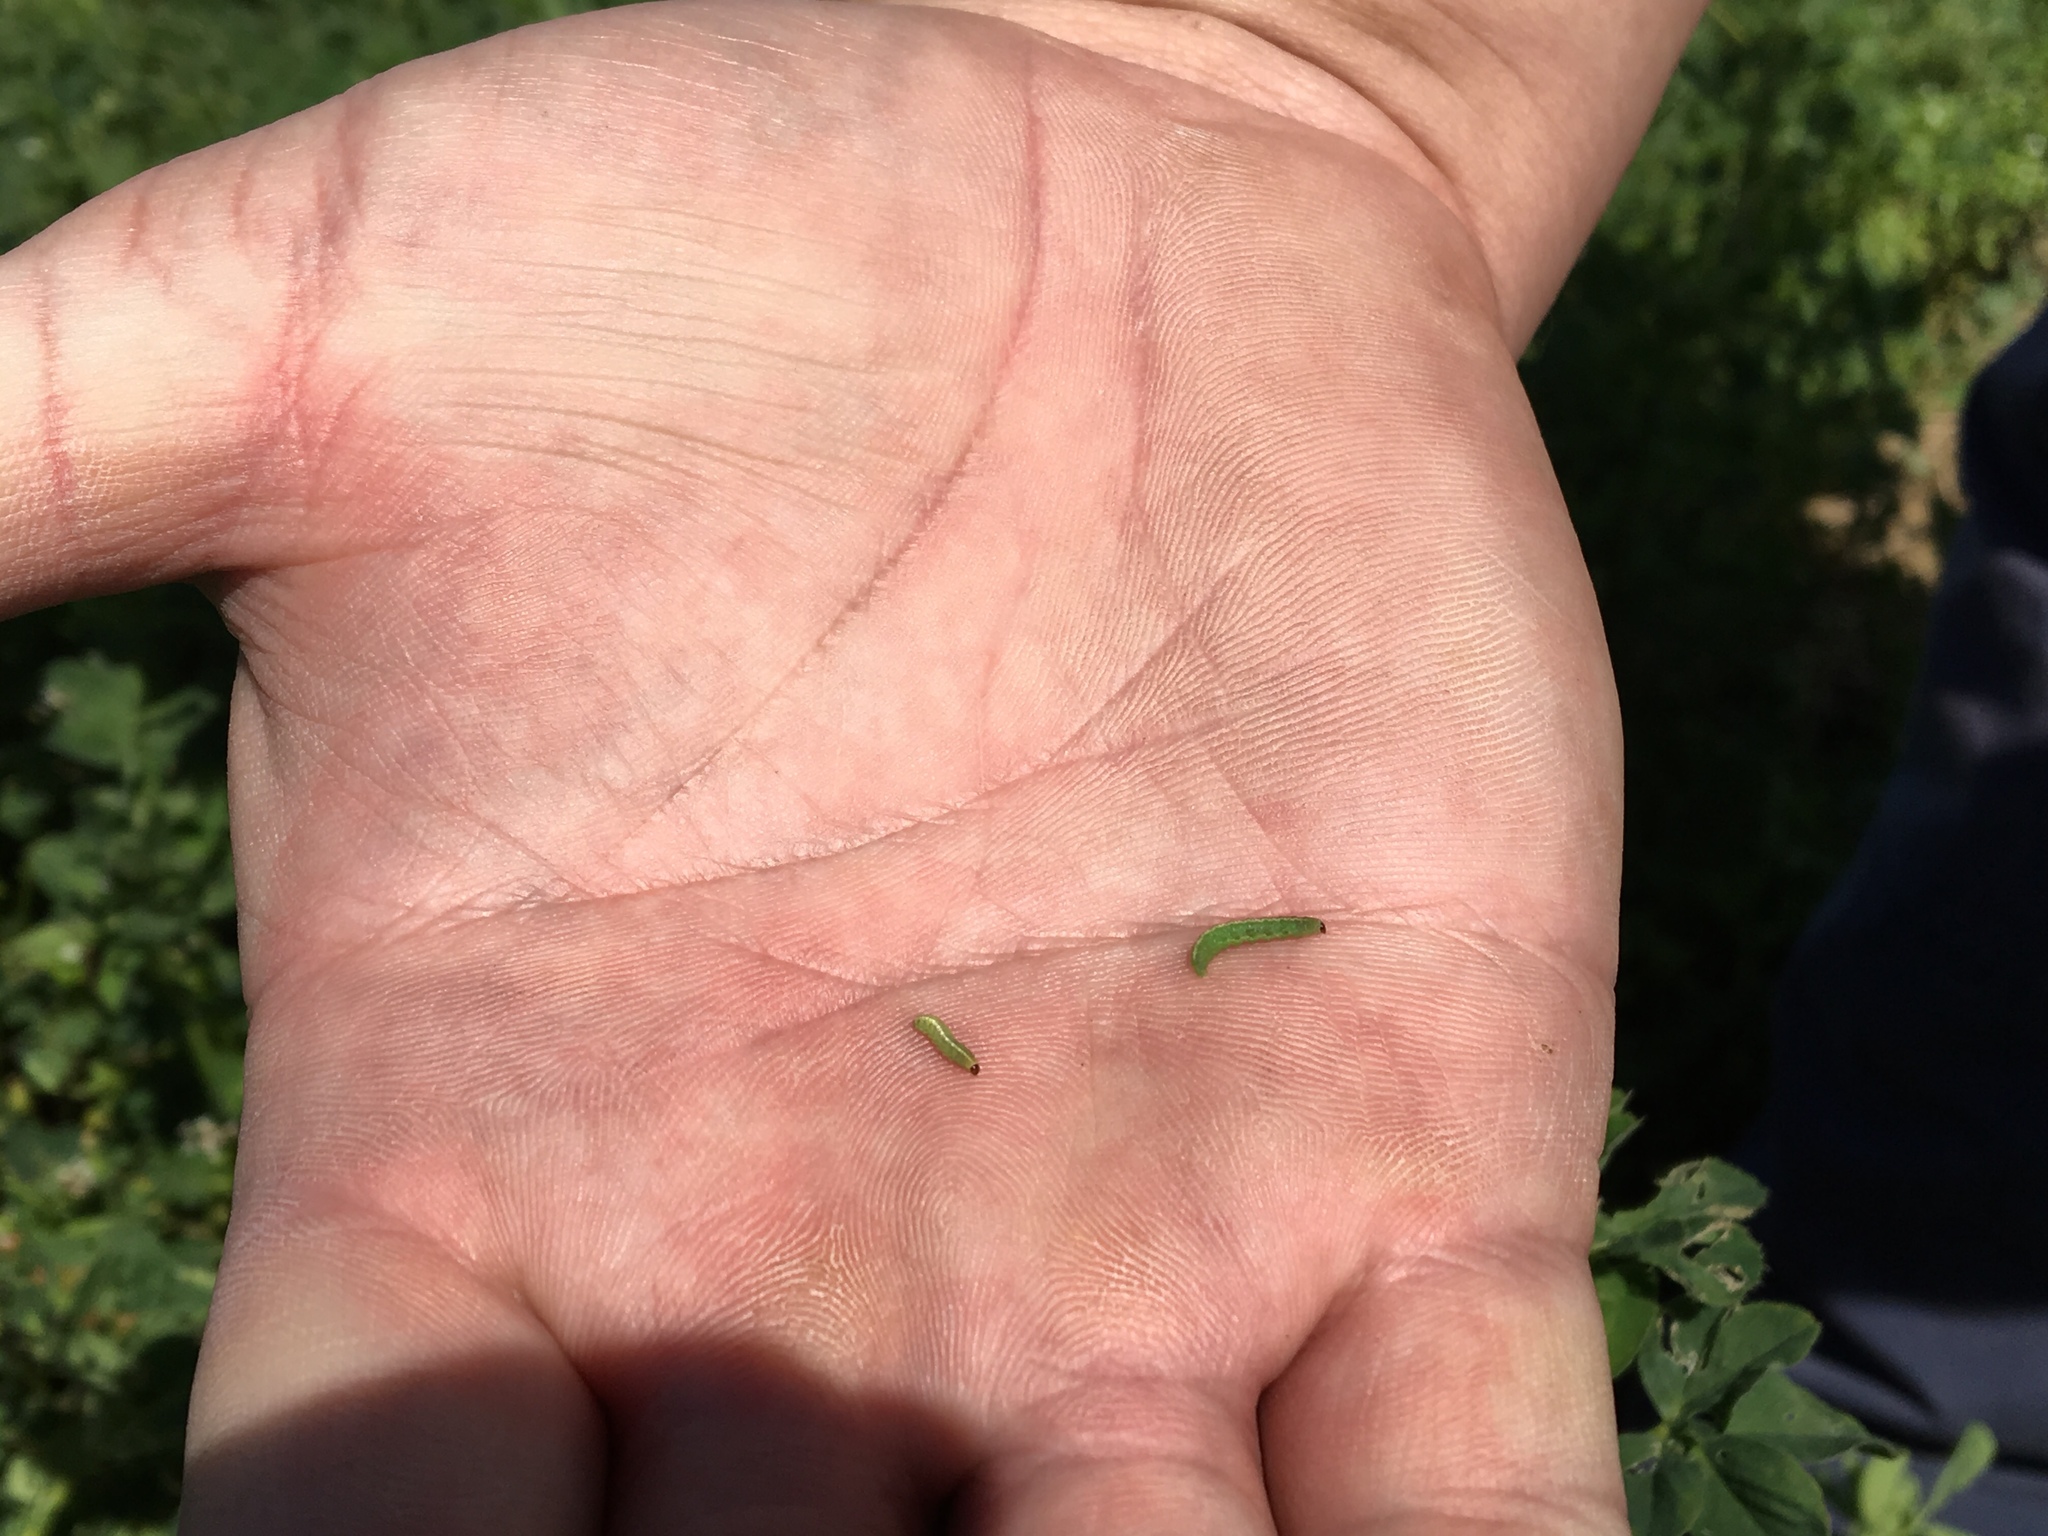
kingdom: Animalia
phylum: Arthropoda
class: Insecta
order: Coleoptera
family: Curculionidae
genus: Hypera
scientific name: Hypera postica
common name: Weevil
